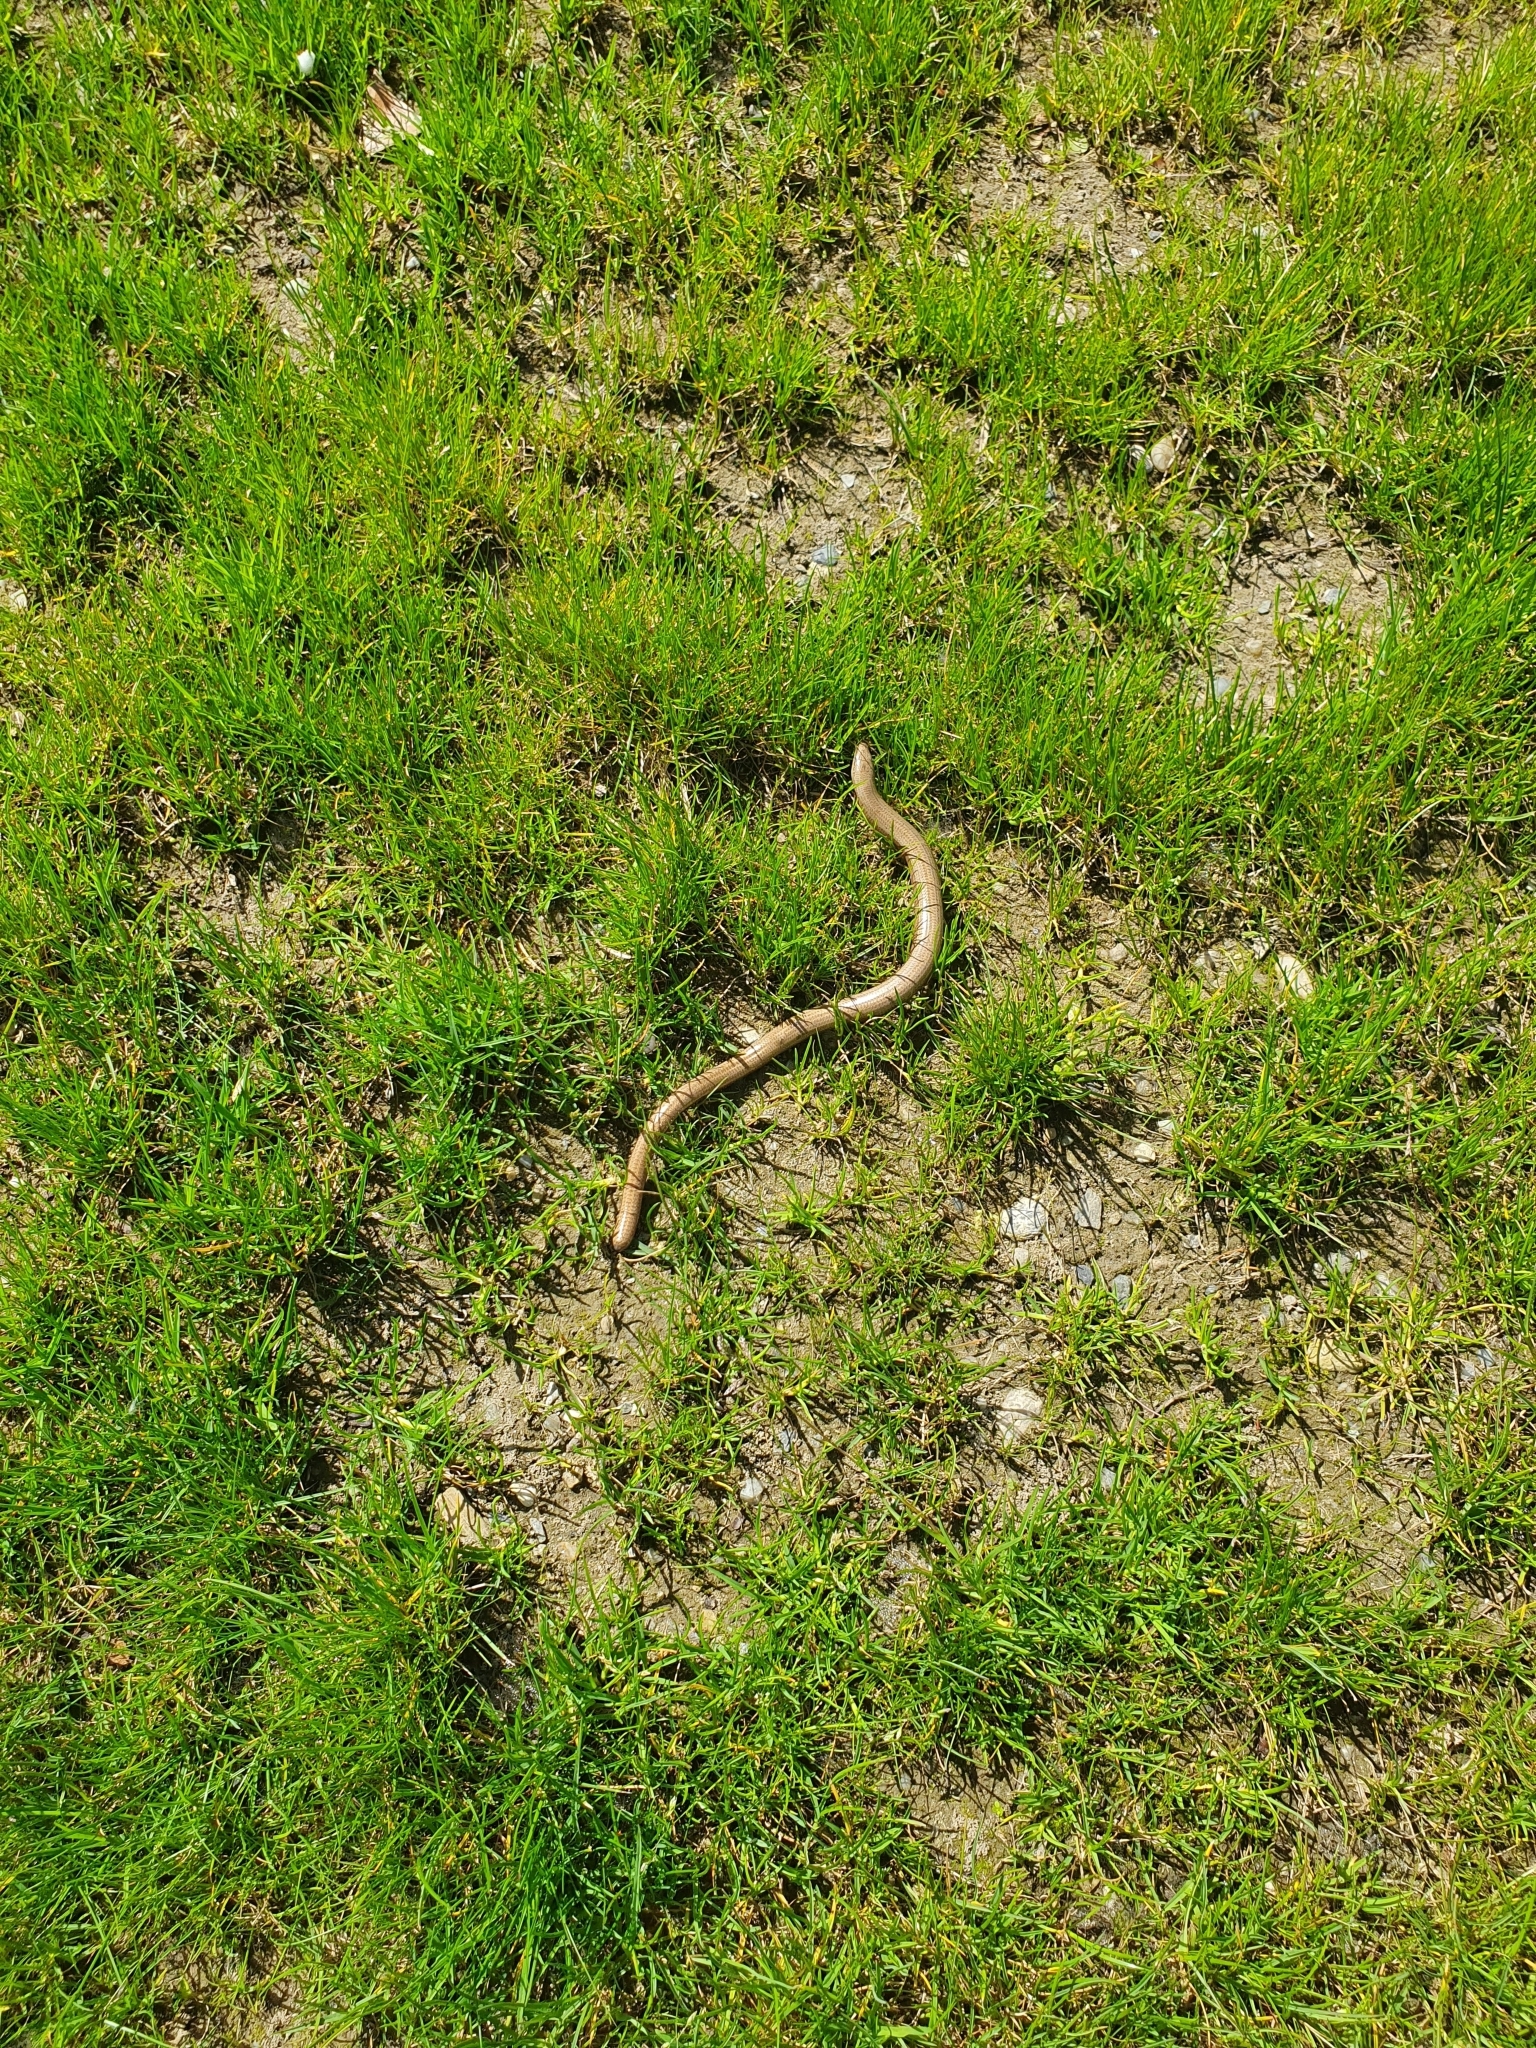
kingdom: Animalia
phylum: Chordata
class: Squamata
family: Anguidae
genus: Anguis
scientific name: Anguis fragilis
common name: Slow worm
